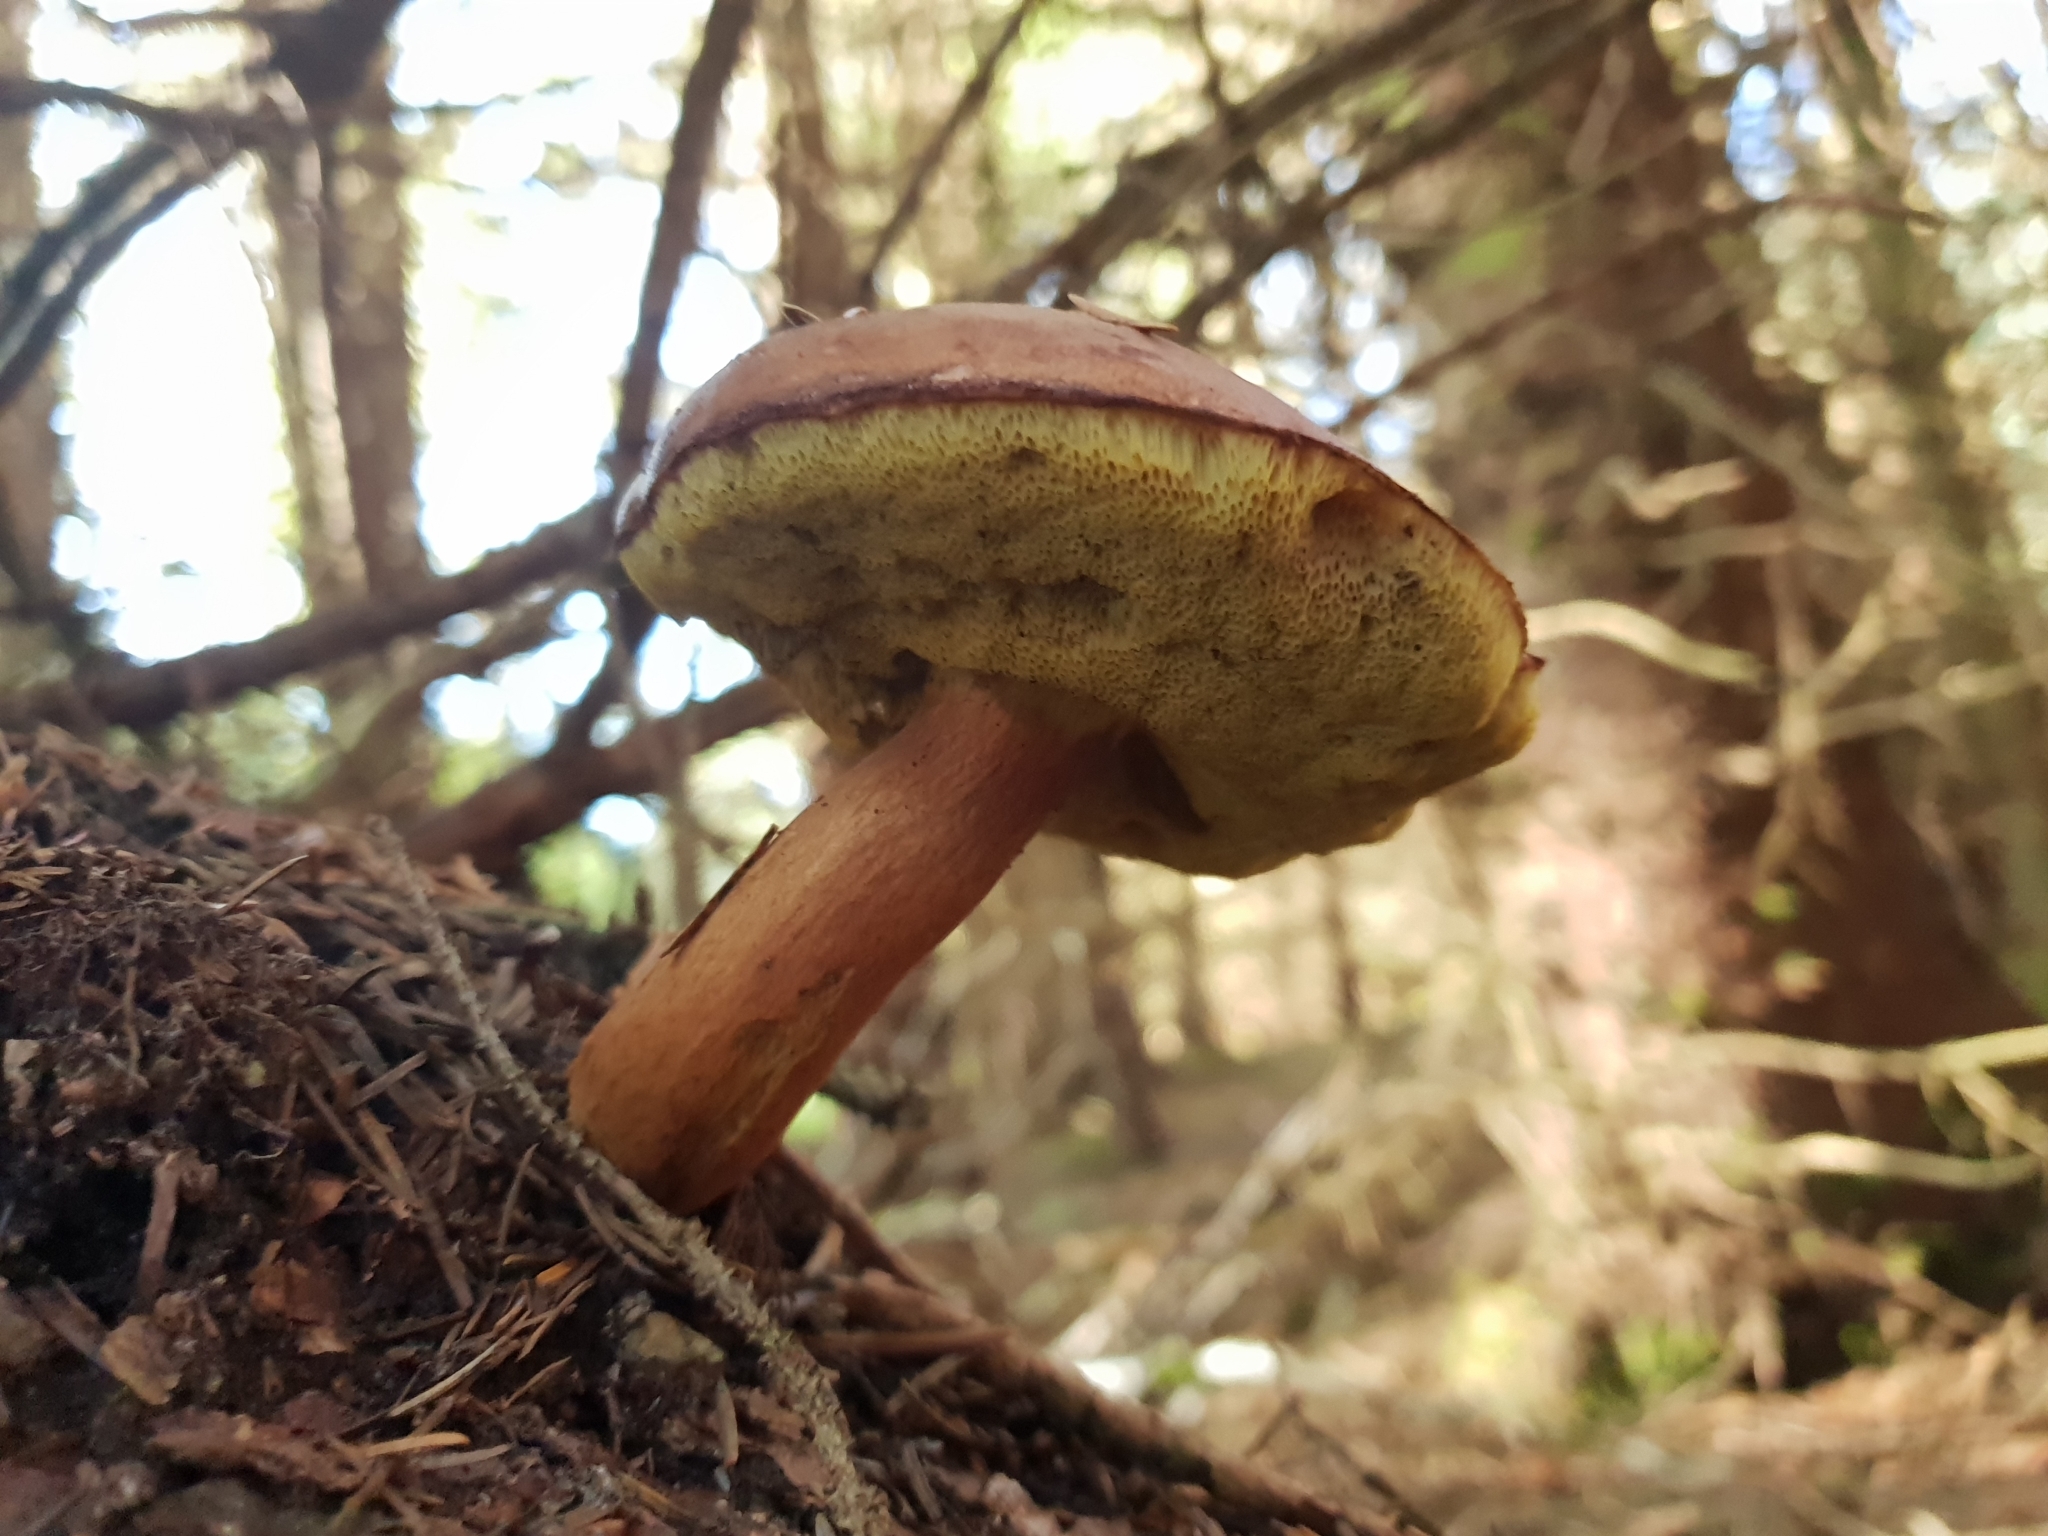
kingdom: Fungi
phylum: Basidiomycota
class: Agaricomycetes
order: Boletales
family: Boletaceae
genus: Imleria
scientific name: Imleria badia
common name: Bay bolete
